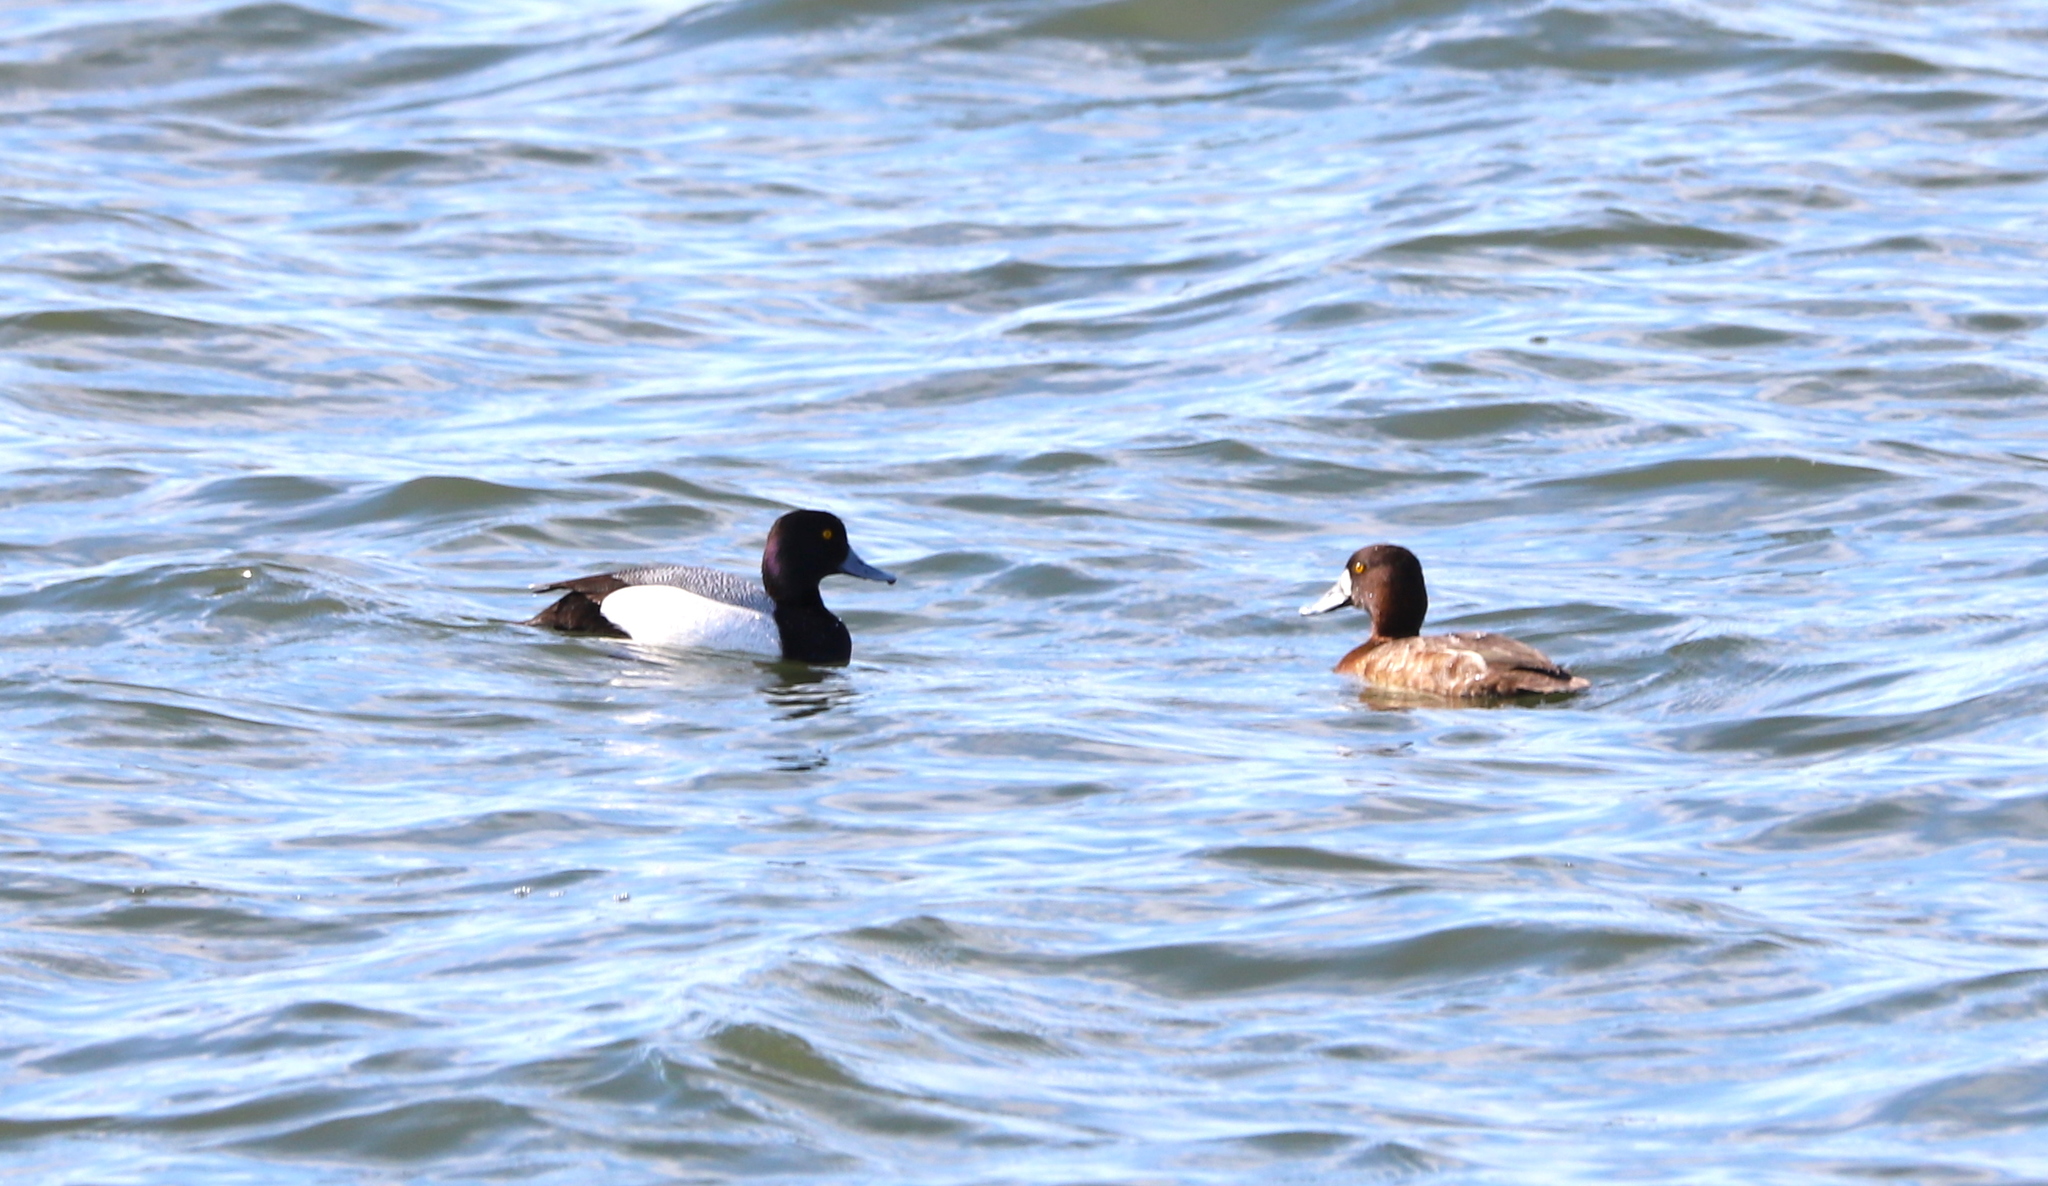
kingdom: Animalia
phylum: Chordata
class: Aves
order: Anseriformes
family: Anatidae
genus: Aythya
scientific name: Aythya marila
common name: Greater scaup
